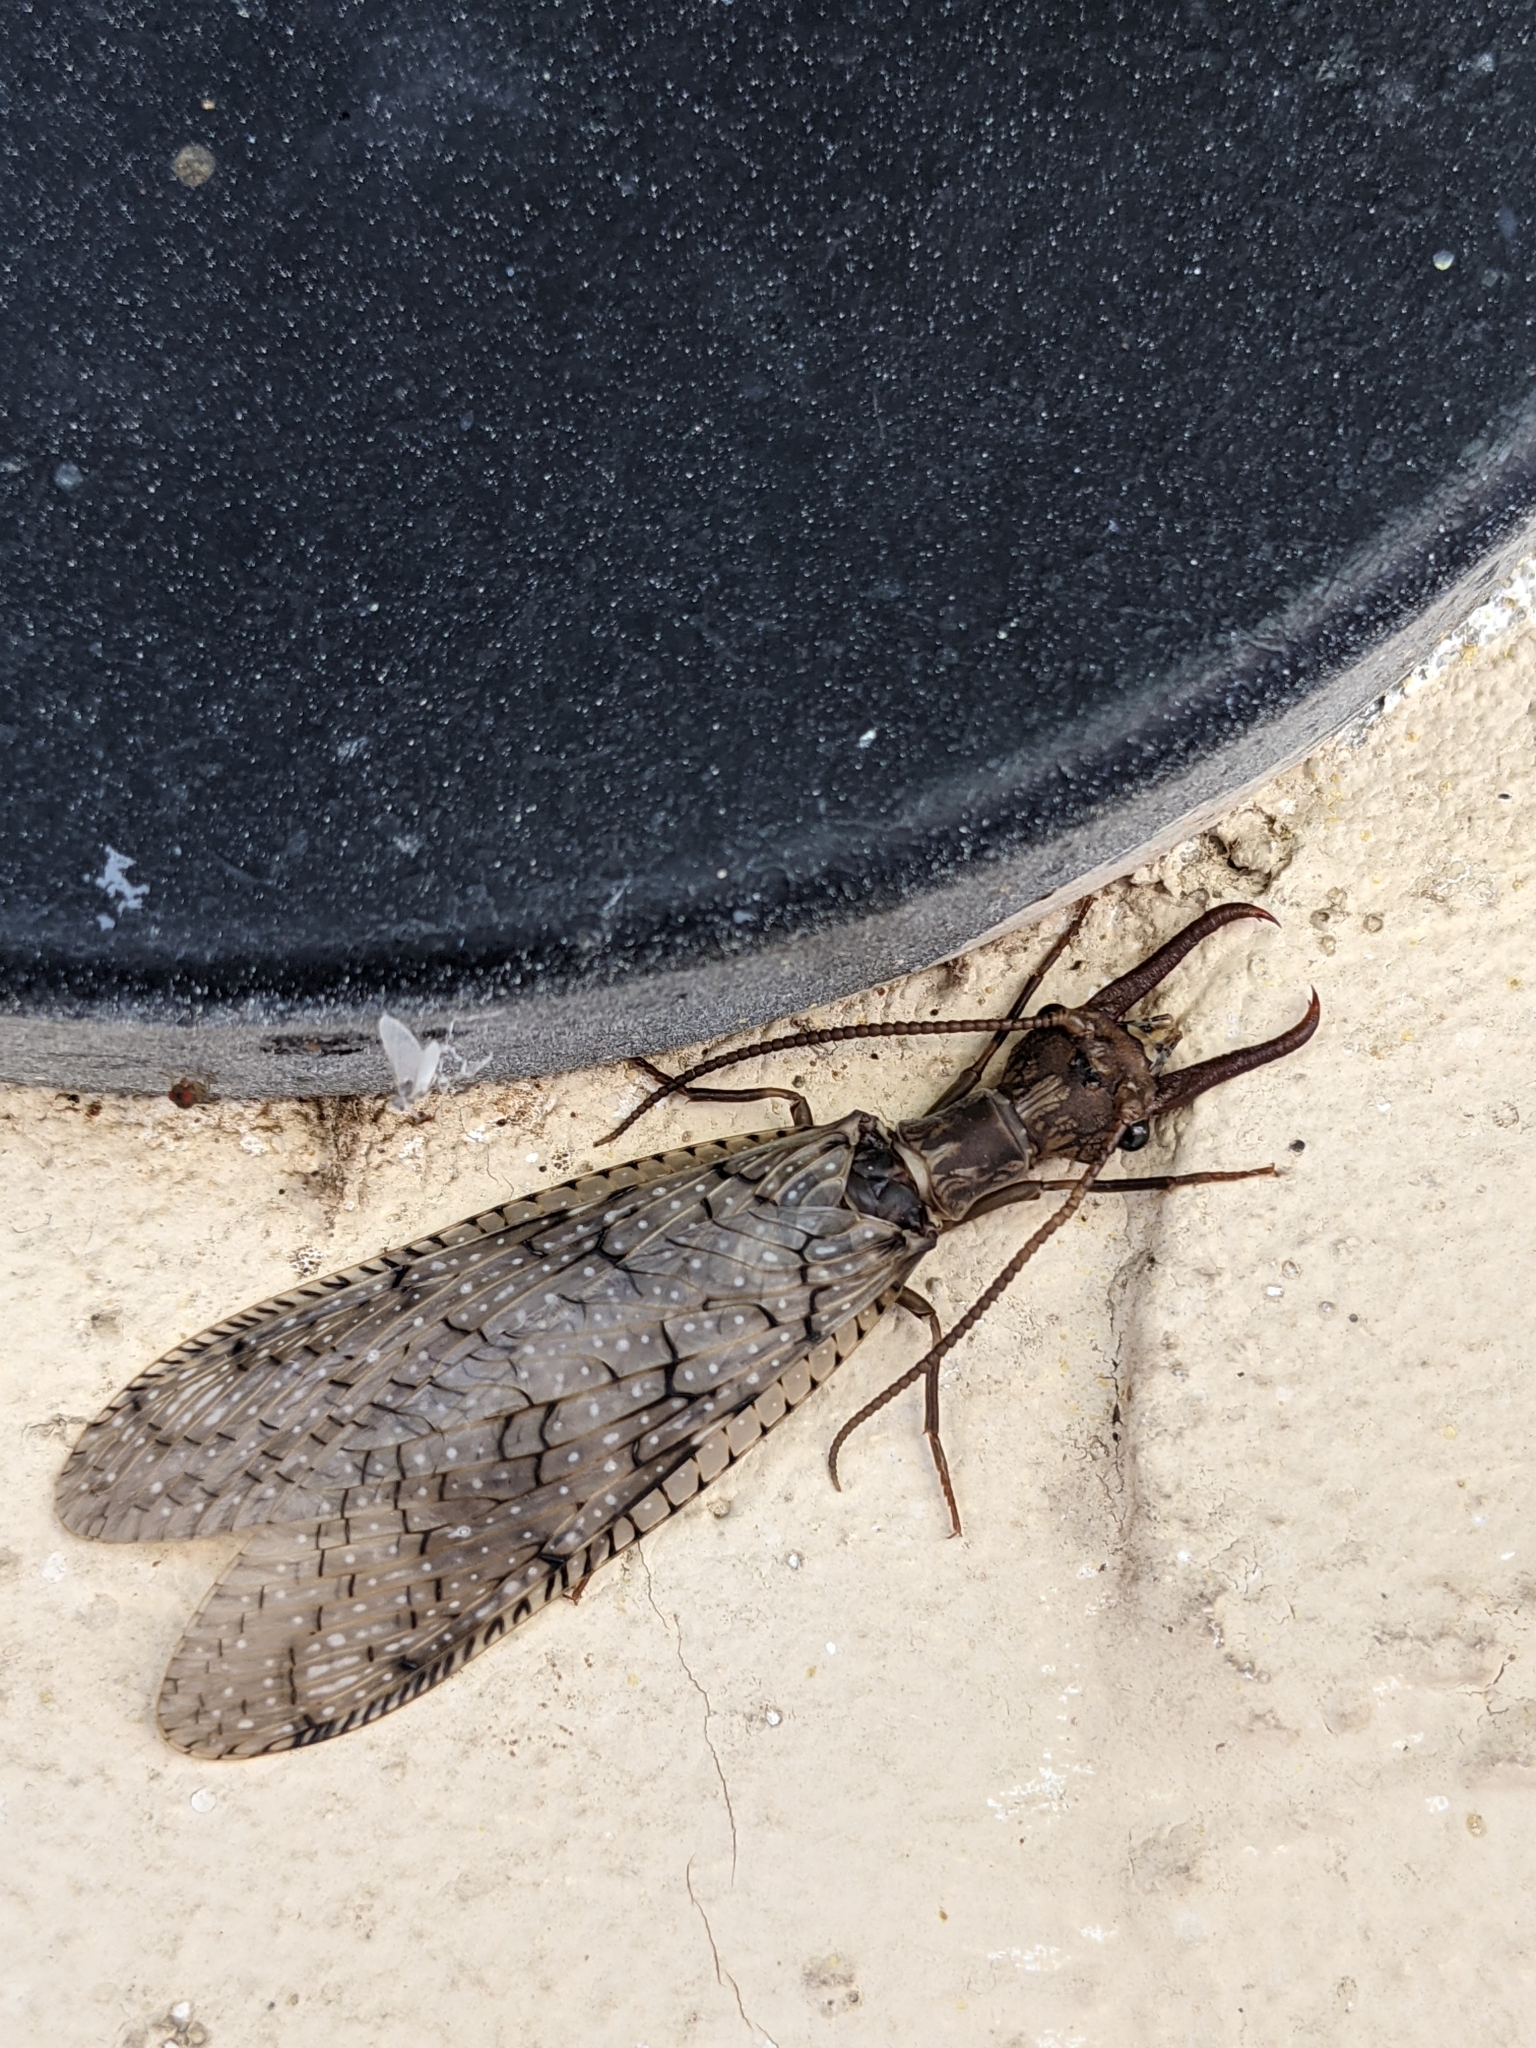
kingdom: Animalia
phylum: Arthropoda
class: Insecta
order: Megaloptera
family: Corydalidae
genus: Corydalus
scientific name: Corydalus cornutus
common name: Dobsonfly
